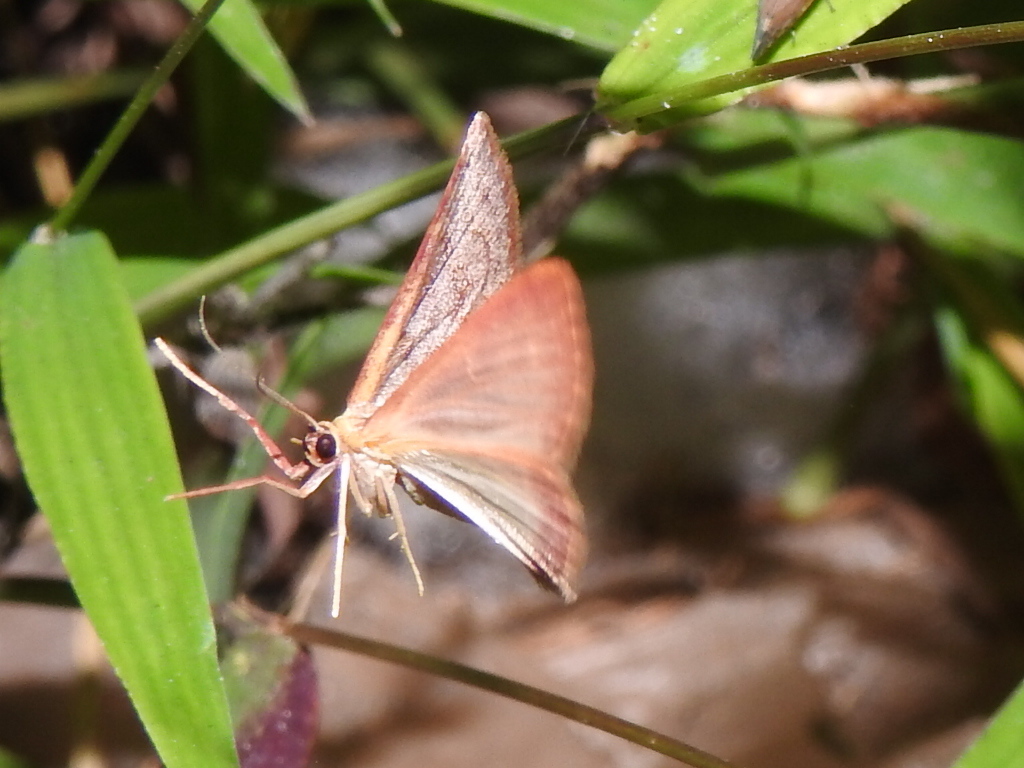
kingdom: Animalia
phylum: Arthropoda
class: Insecta
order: Lepidoptera
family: Geometridae
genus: Leptostales
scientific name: Leptostales pannaria
